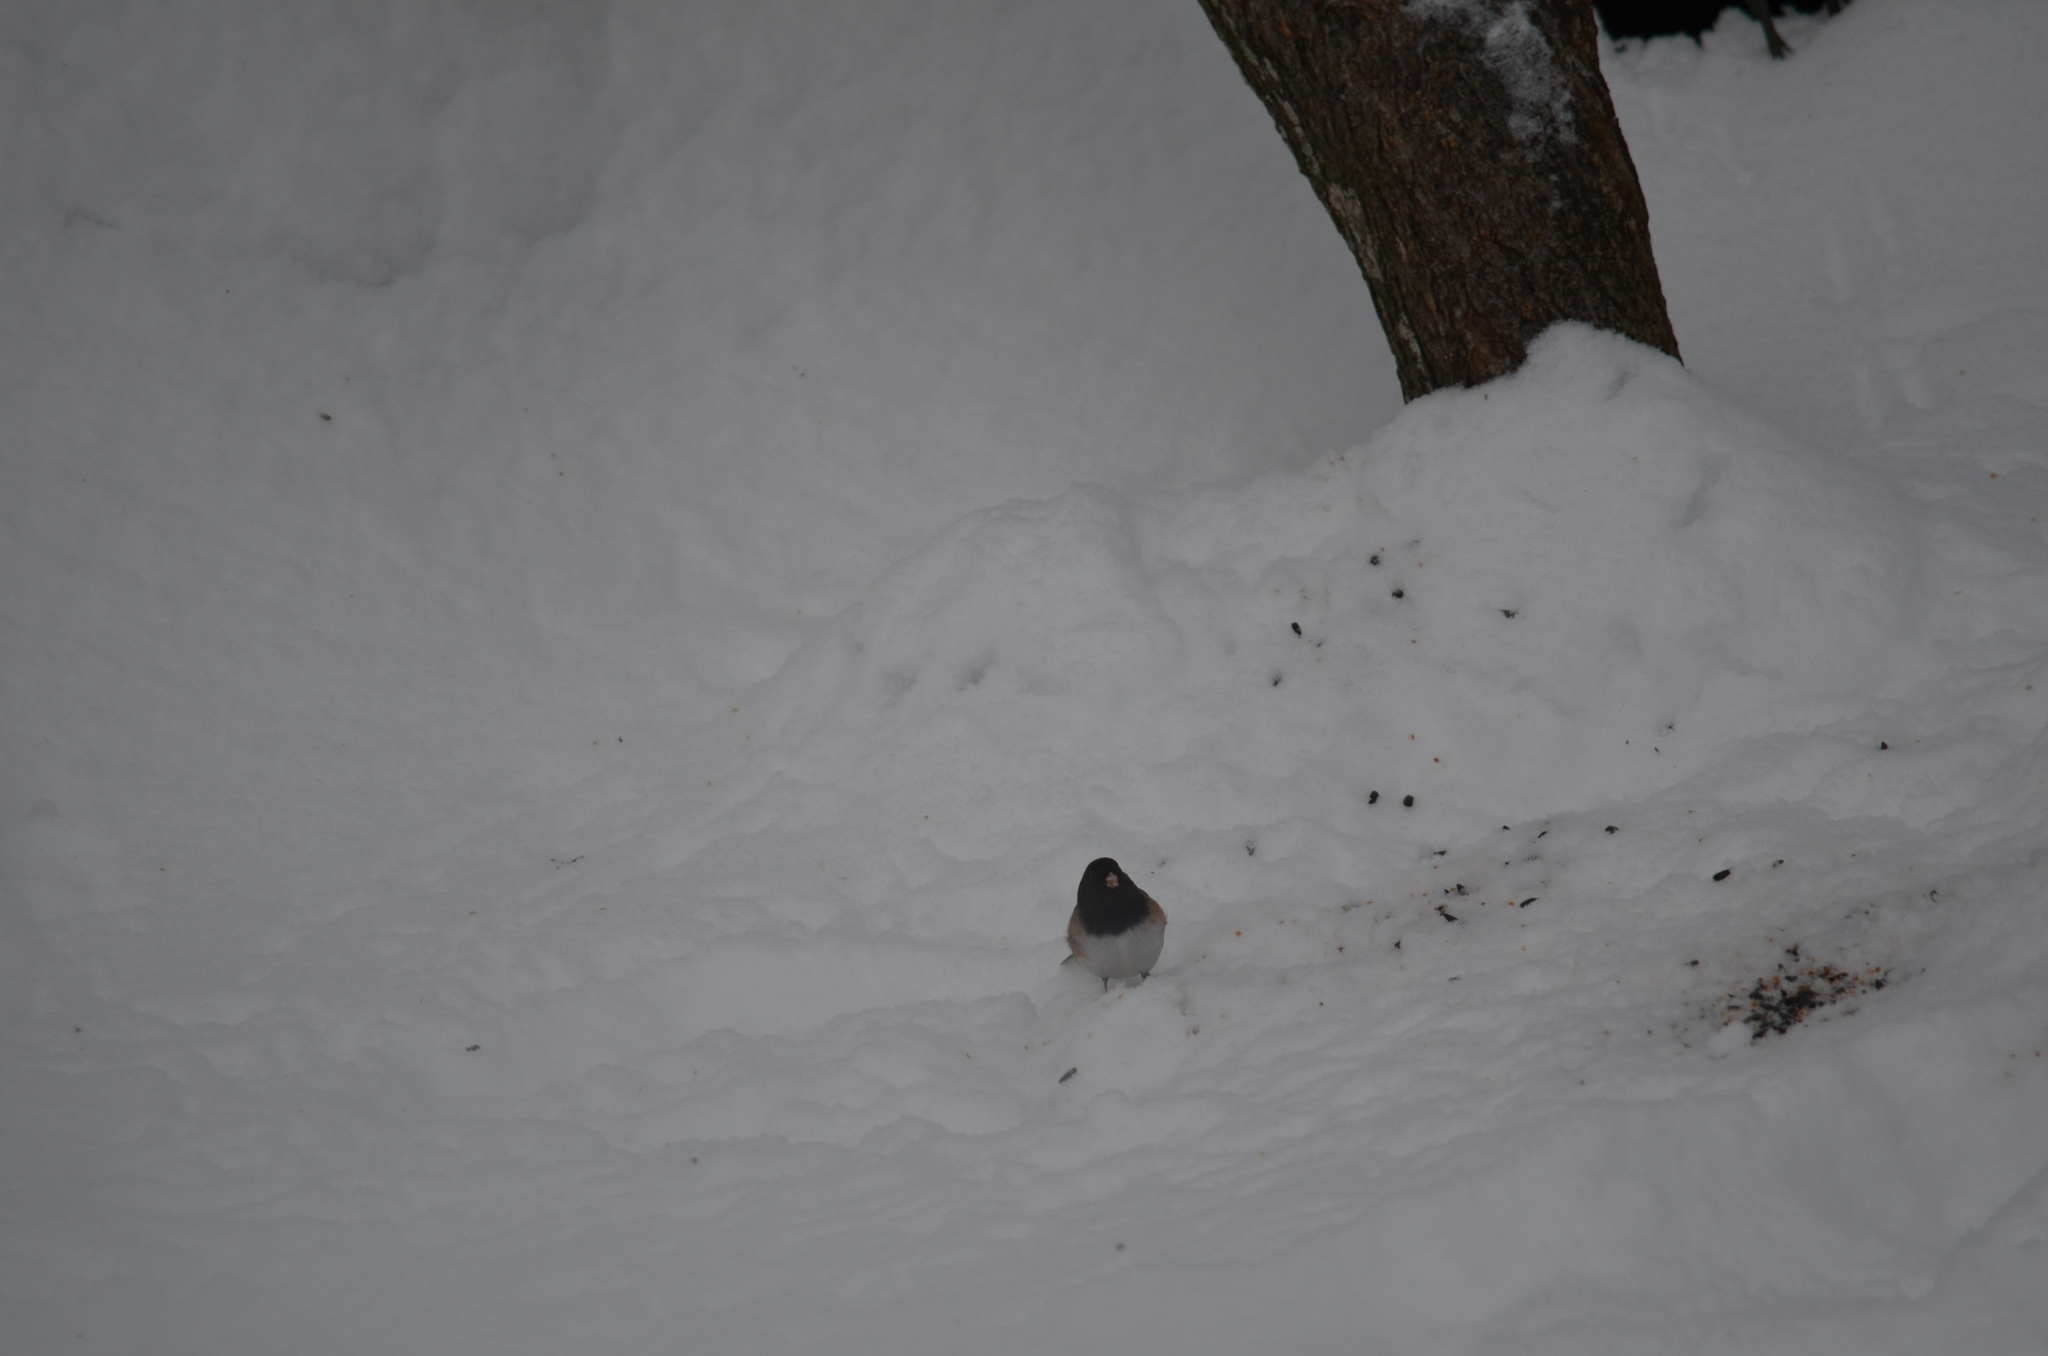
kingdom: Animalia
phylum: Chordata
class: Aves
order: Passeriformes
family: Passerellidae
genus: Junco
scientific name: Junco hyemalis
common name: Dark-eyed junco
